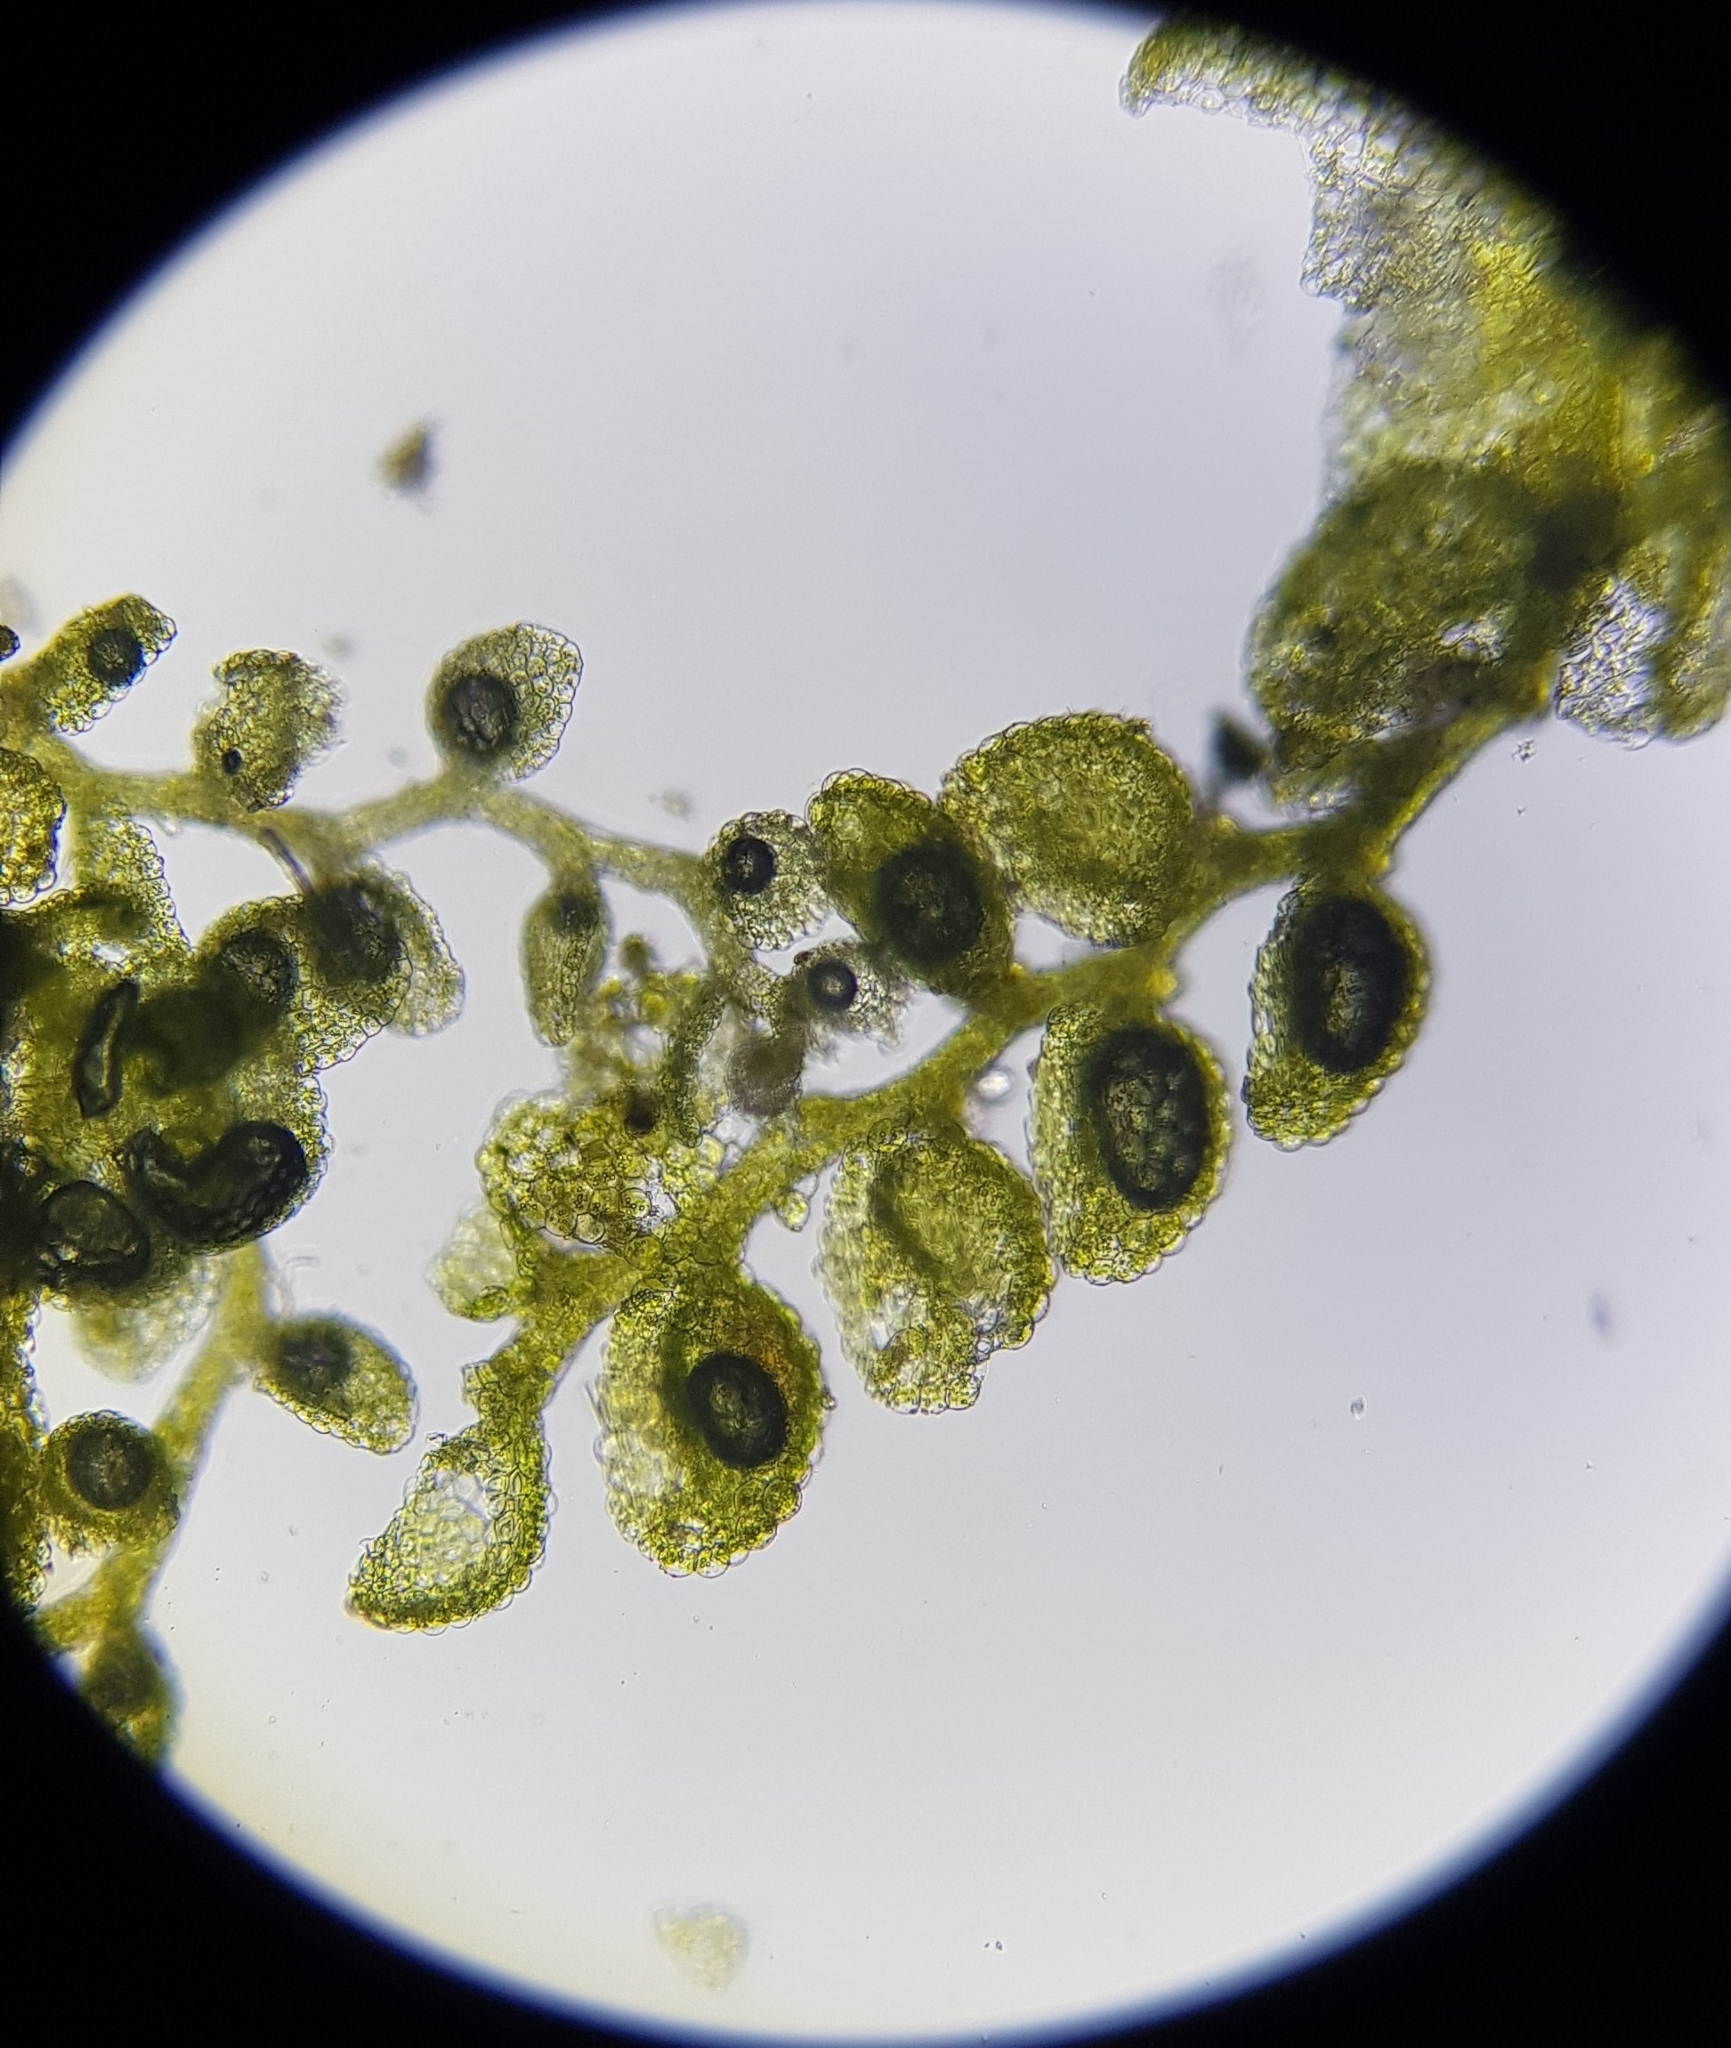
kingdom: Plantae
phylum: Marchantiophyta
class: Jungermanniopsida
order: Porellales
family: Lejeuneaceae
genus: Myriocoleopsis
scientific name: Myriocoleopsis minutissima
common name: Minute pouncewort
